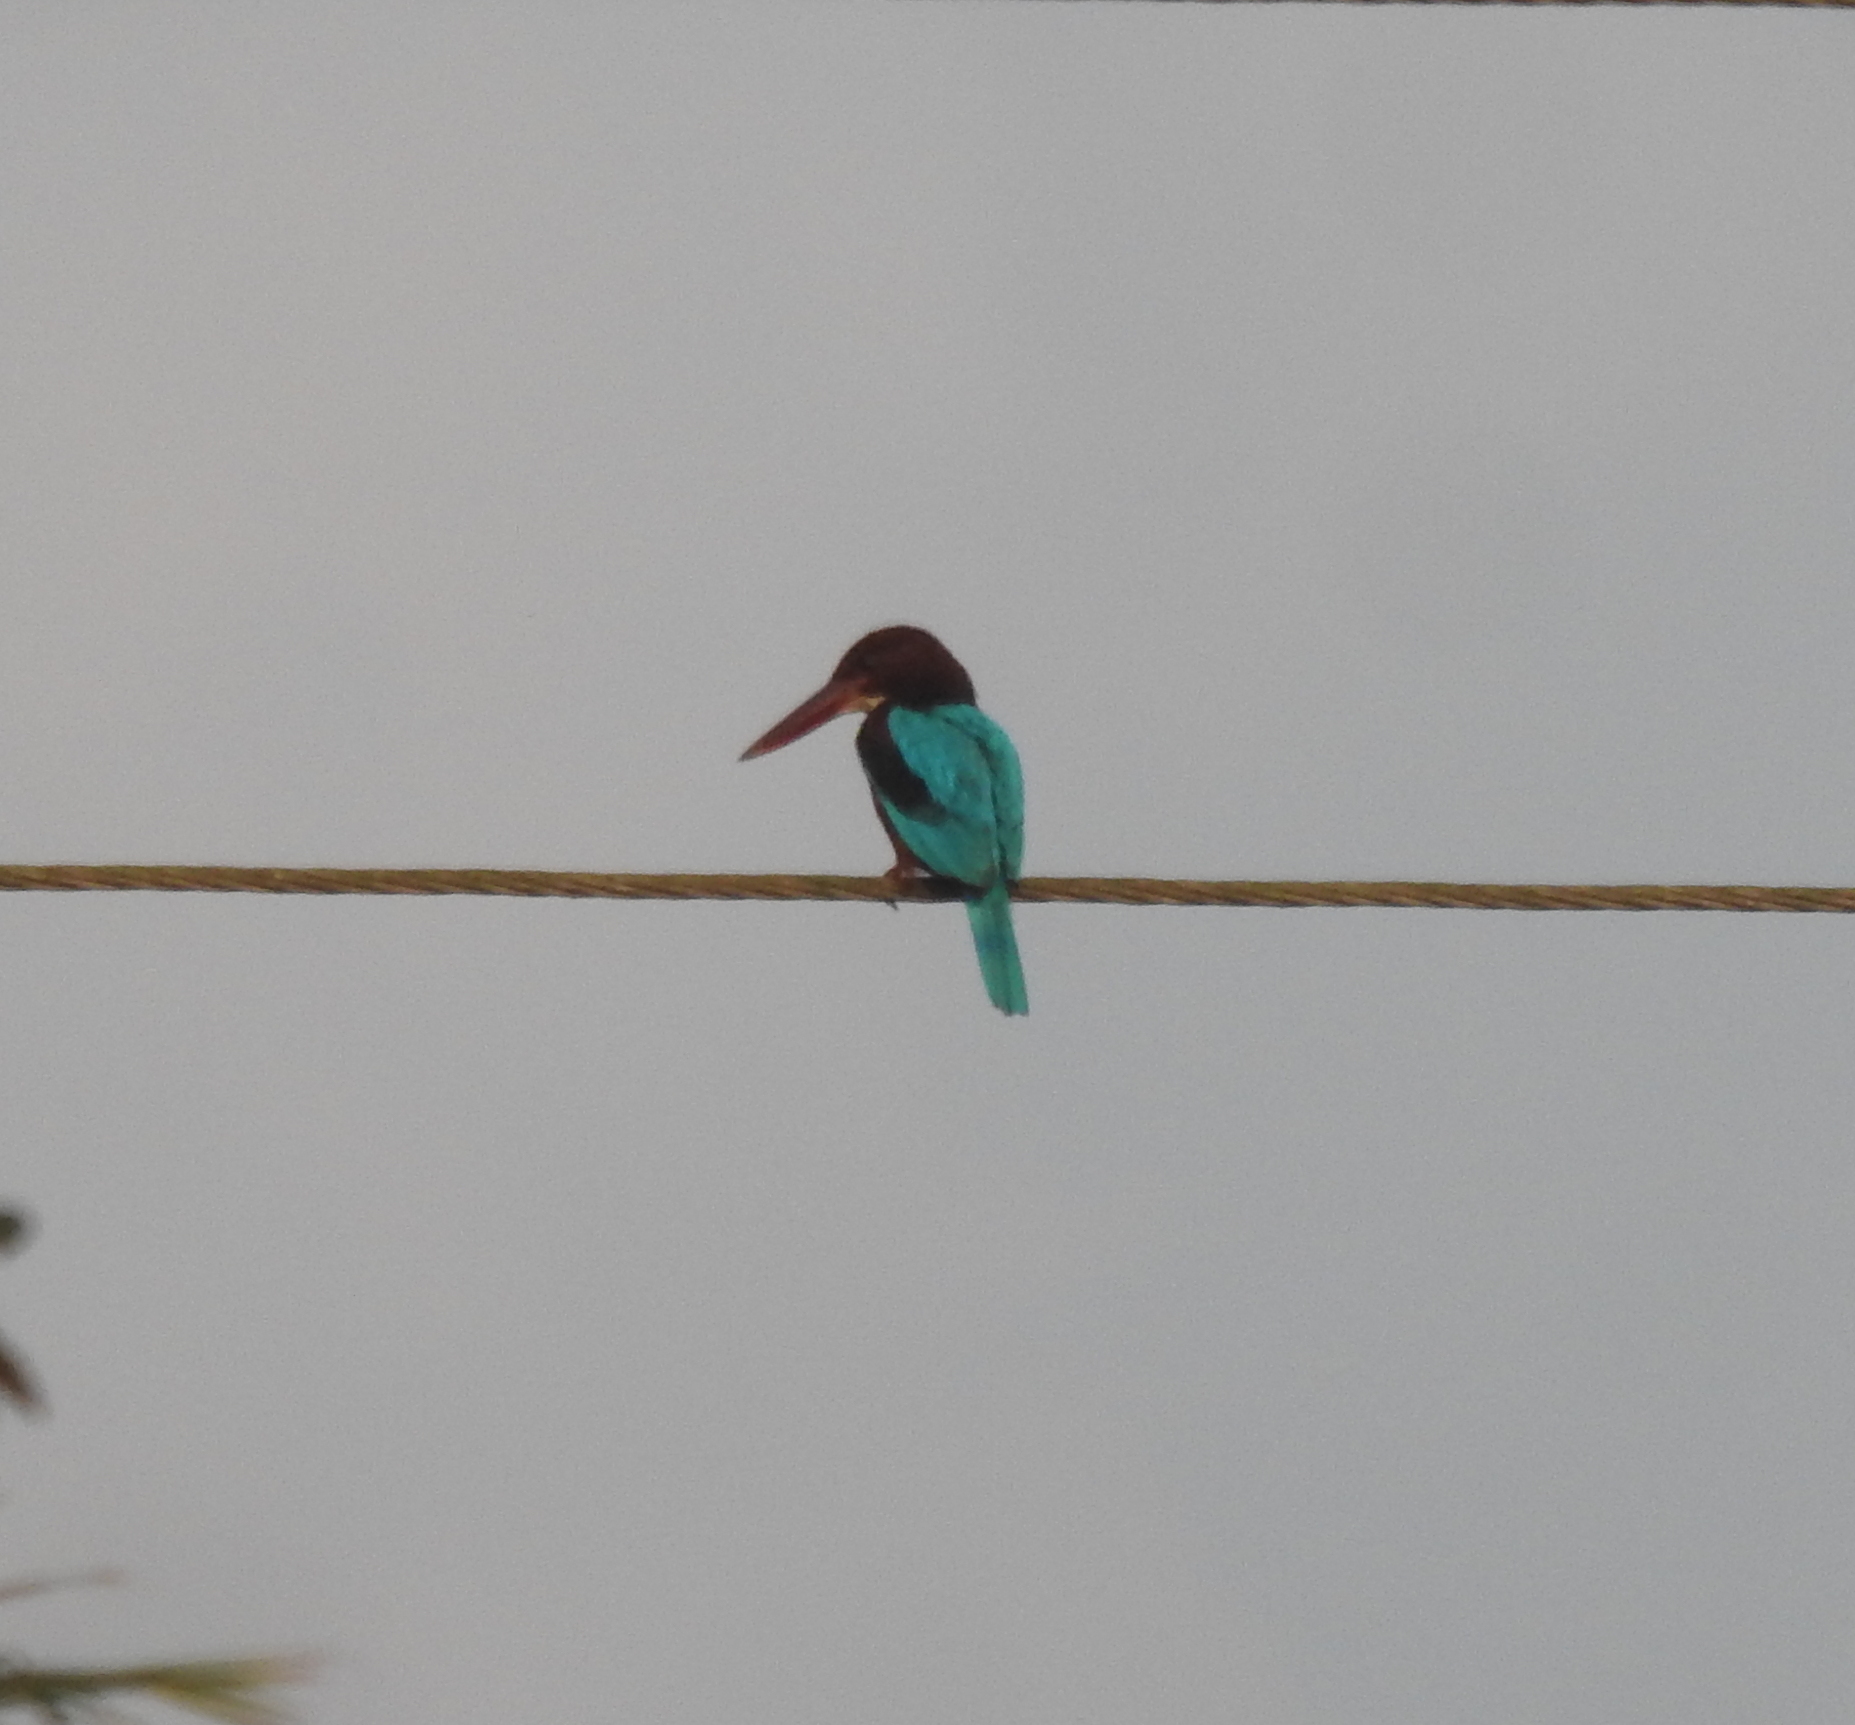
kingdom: Animalia
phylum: Chordata
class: Aves
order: Coraciiformes
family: Alcedinidae
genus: Halcyon
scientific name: Halcyon smyrnensis
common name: White-throated kingfisher
